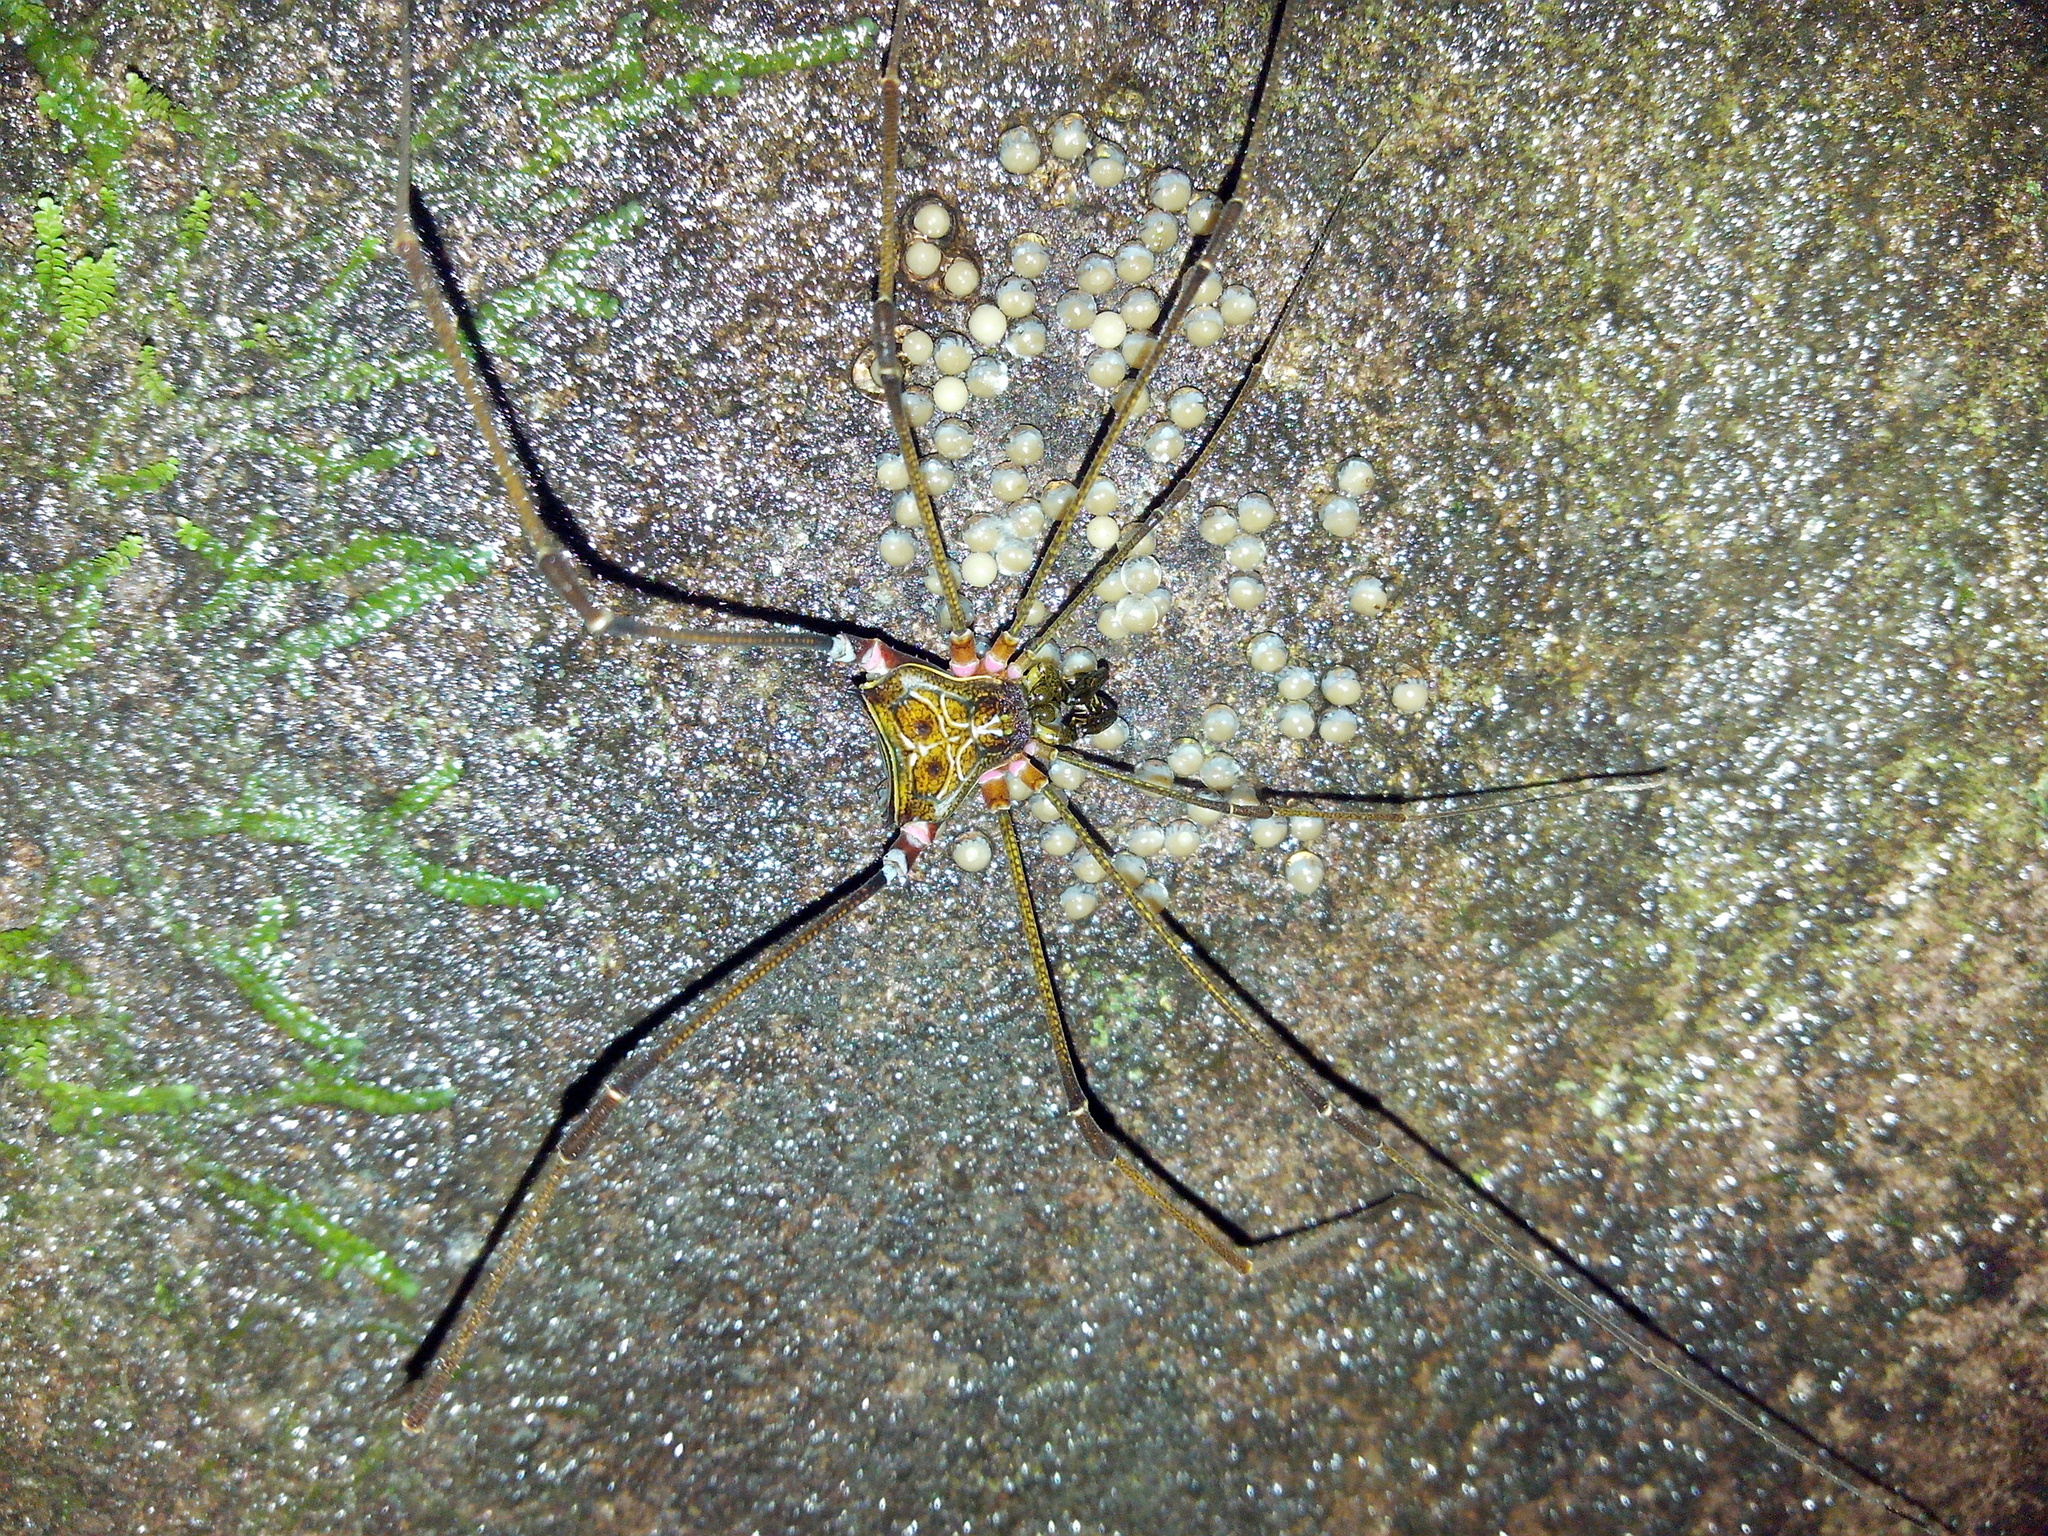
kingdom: Animalia
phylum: Arthropoda
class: Arachnida
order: Opiliones
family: Gonyleptidae
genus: Serracutisoma
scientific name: Serracutisoma fritzmuelleri
